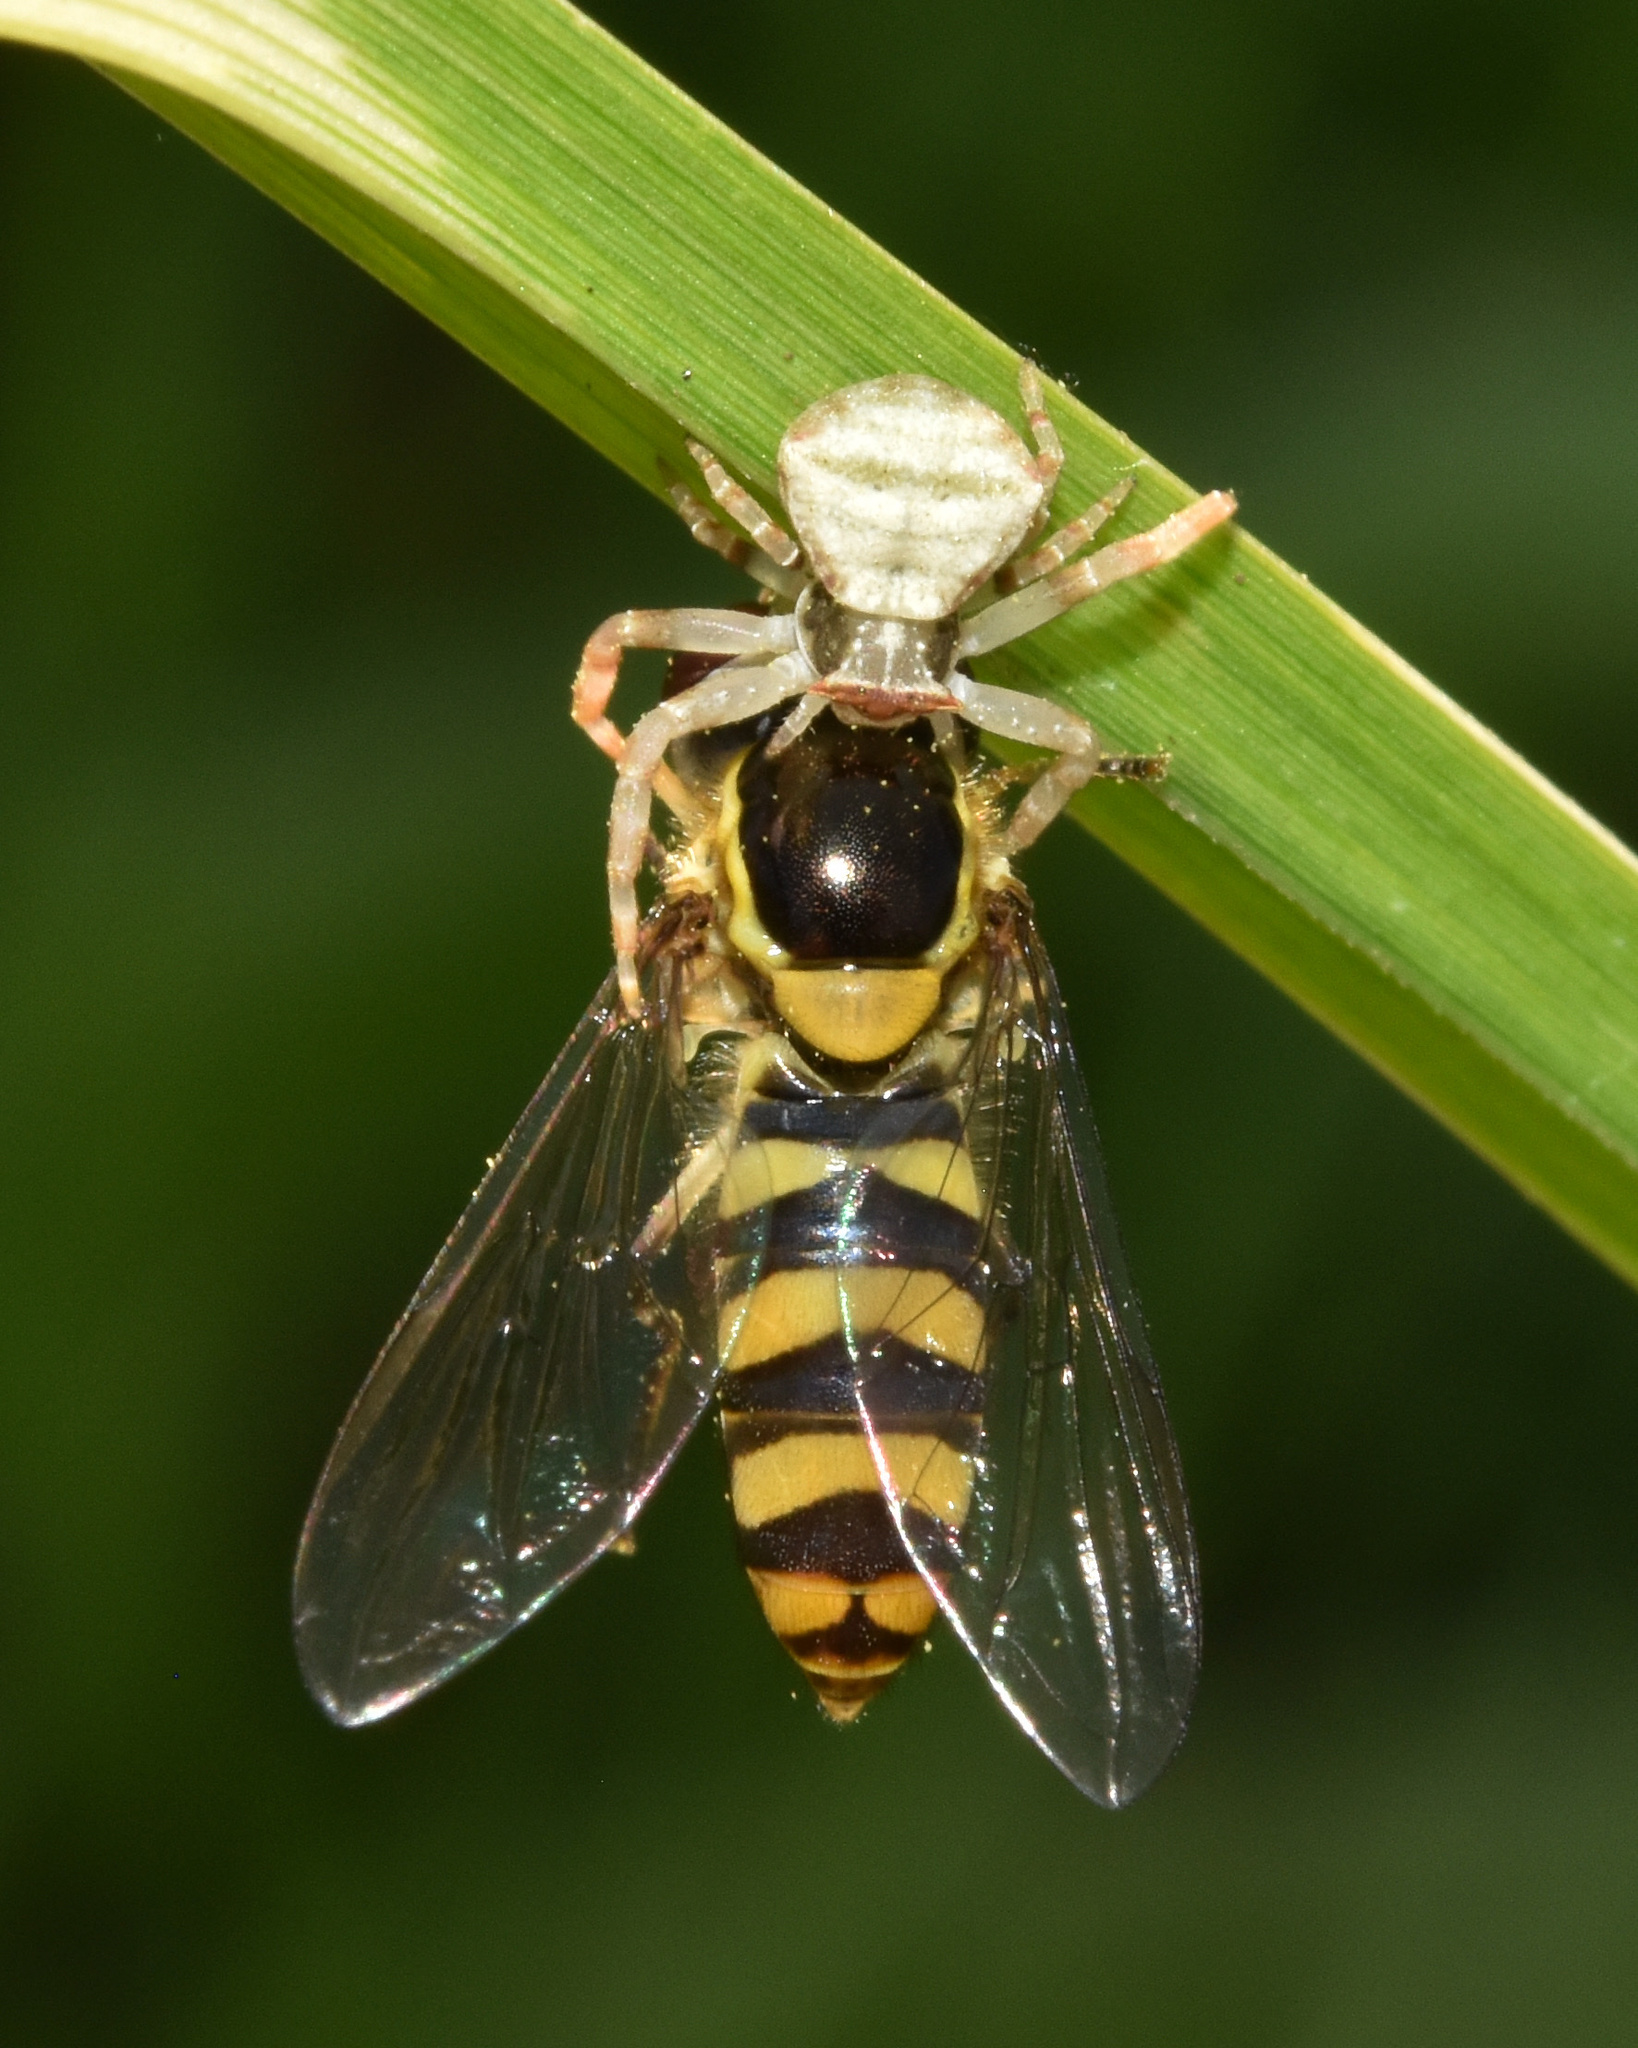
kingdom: Animalia
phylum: Arthropoda
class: Insecta
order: Diptera
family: Syrphidae
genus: Allograpta
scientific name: Allograpta nasuta
